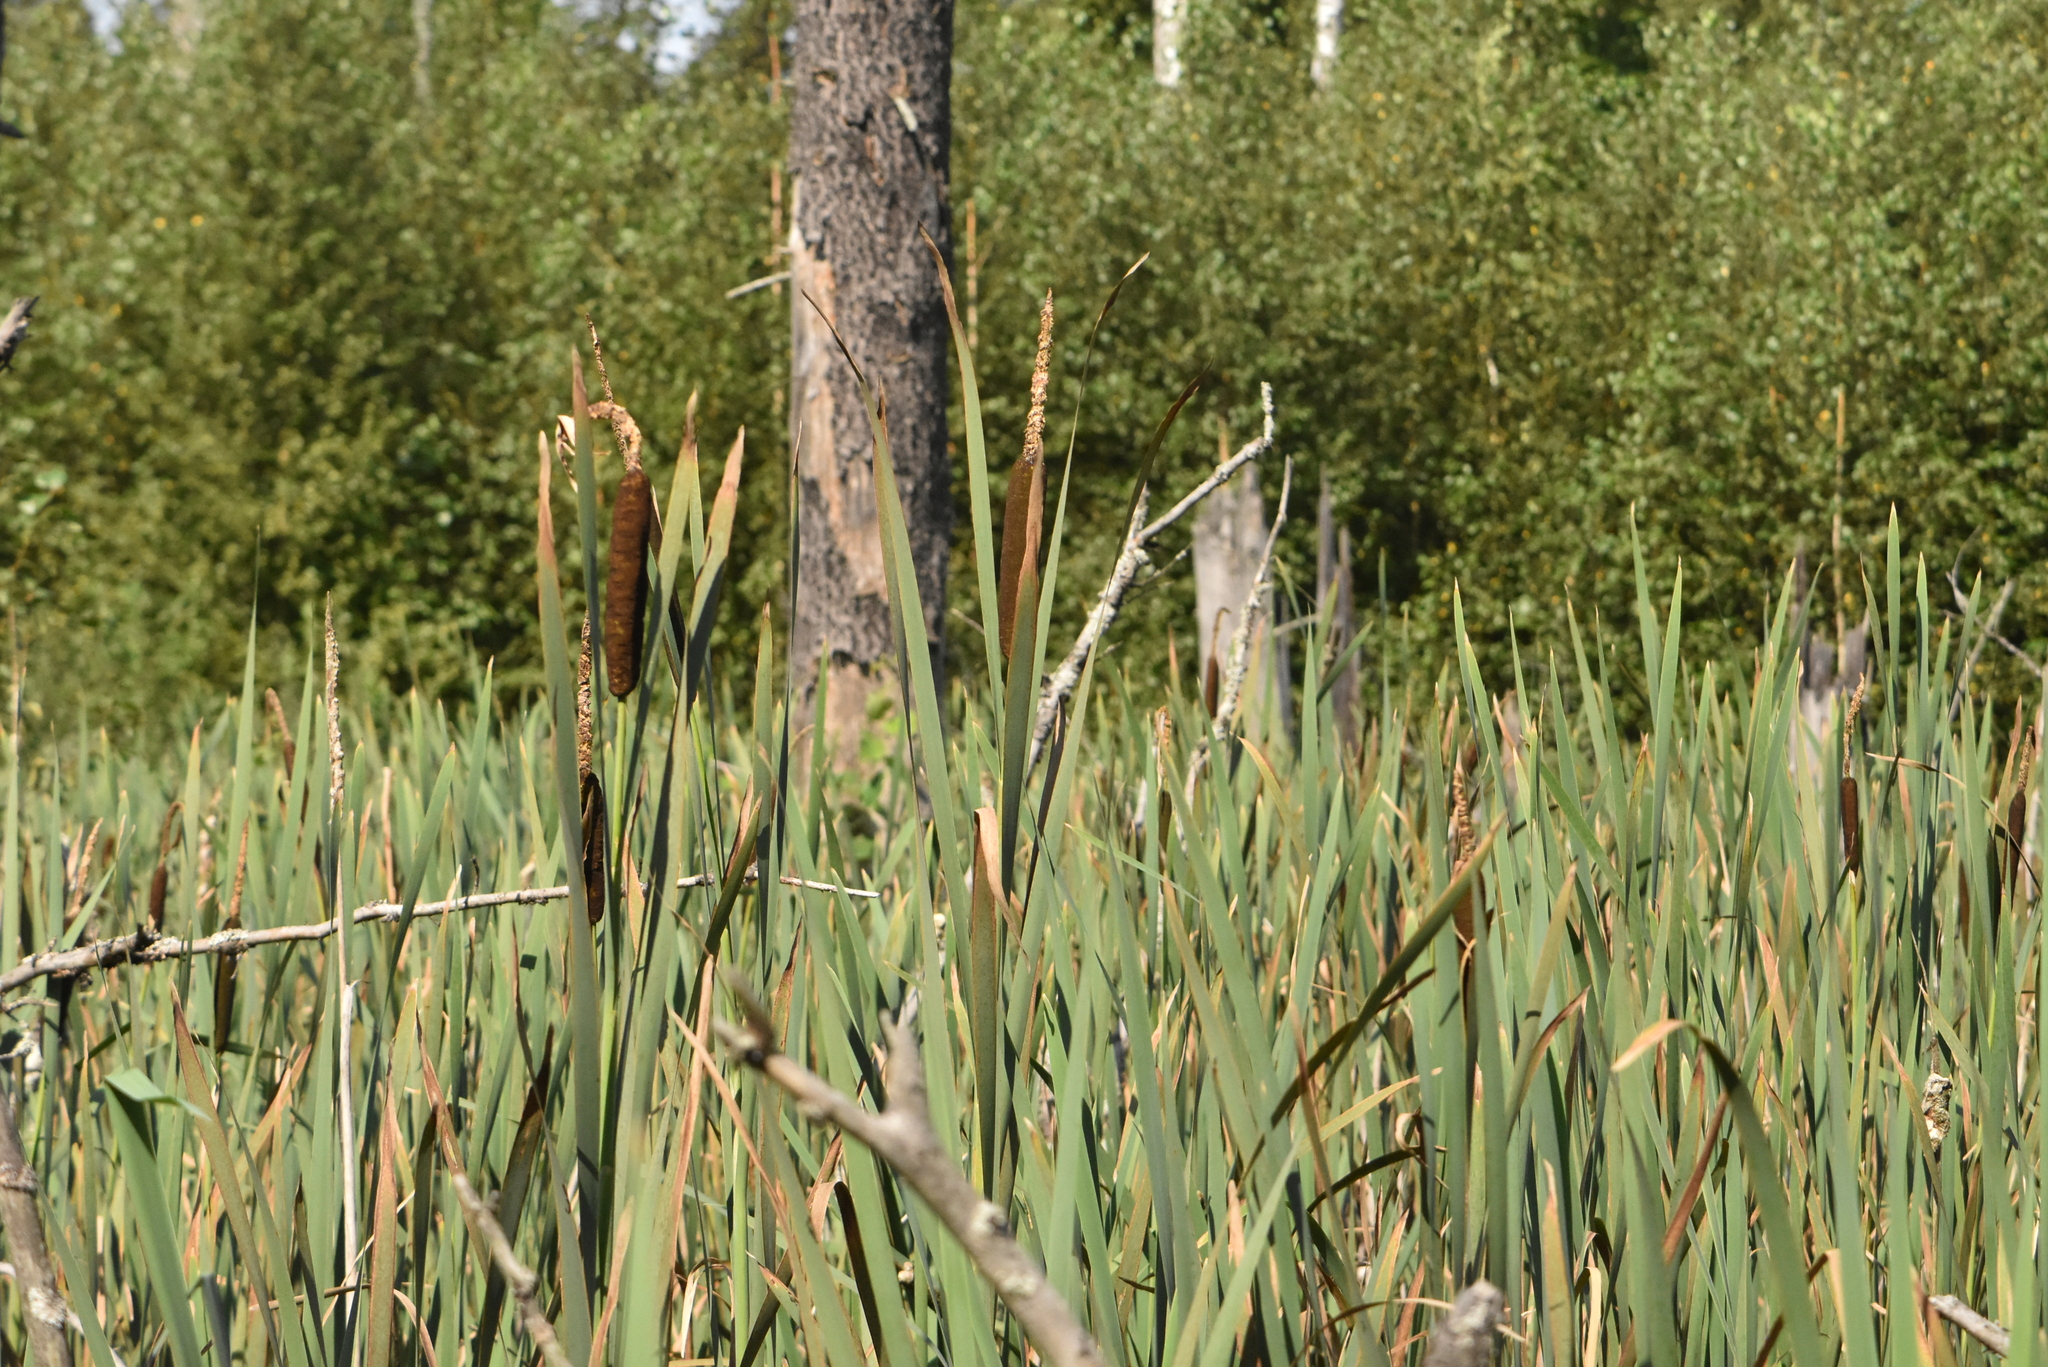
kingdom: Plantae
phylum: Tracheophyta
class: Liliopsida
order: Poales
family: Typhaceae
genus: Typha
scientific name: Typha latifolia
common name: Broadleaf cattail
